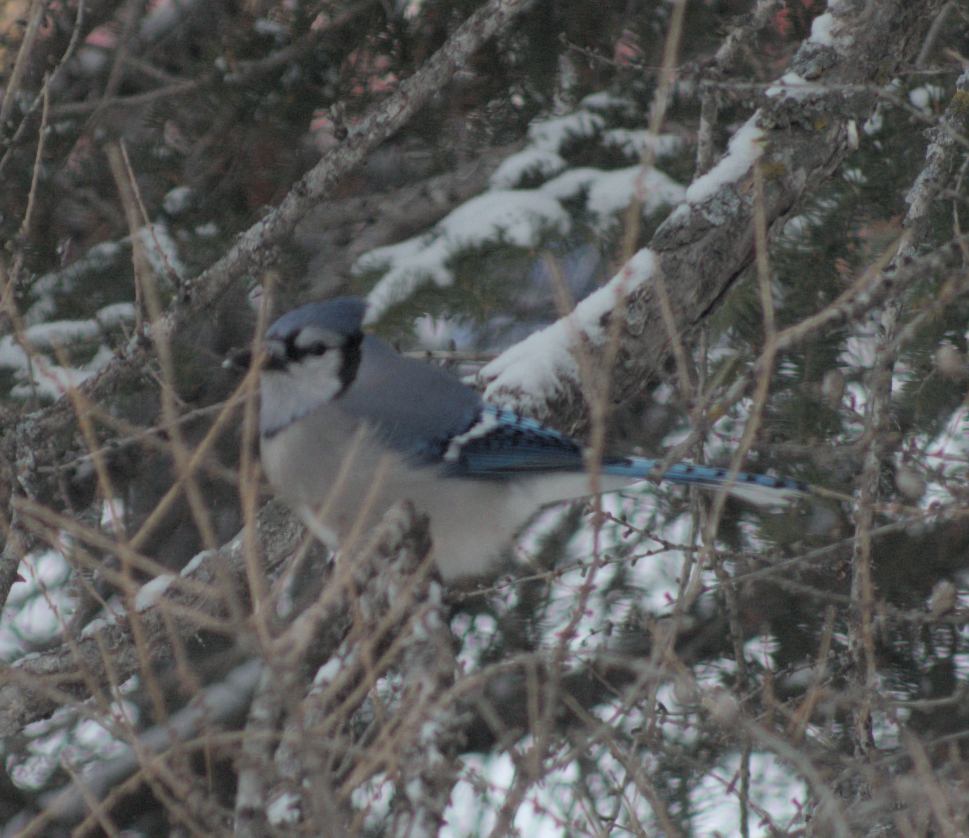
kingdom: Animalia
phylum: Chordata
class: Aves
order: Passeriformes
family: Corvidae
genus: Cyanocitta
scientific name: Cyanocitta cristata
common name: Blue jay
